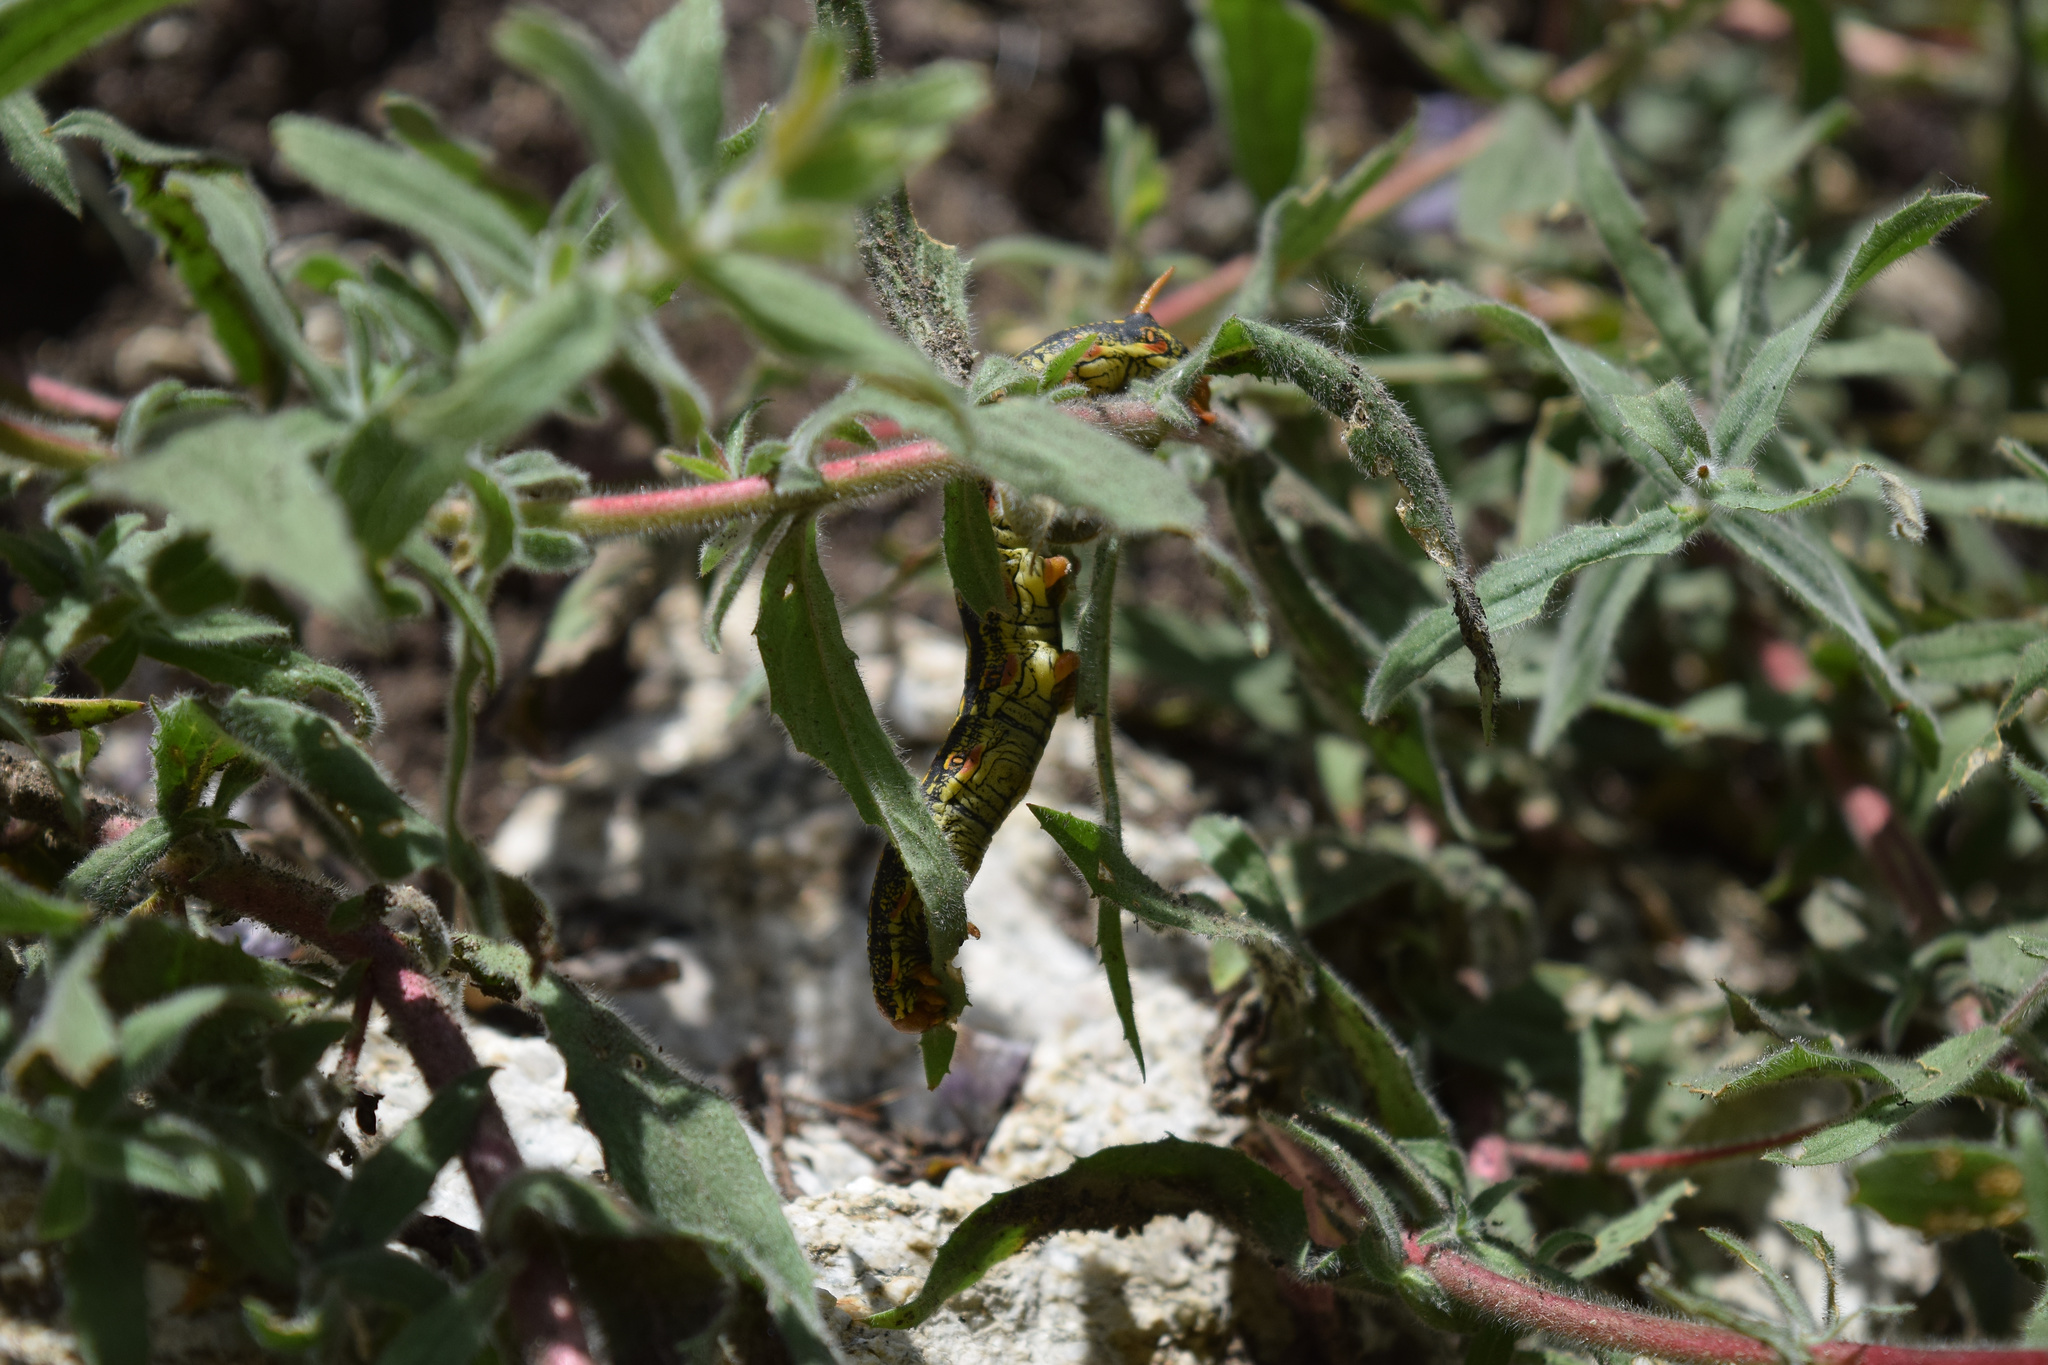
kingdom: Animalia
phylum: Arthropoda
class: Insecta
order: Lepidoptera
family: Sphingidae
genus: Hyles
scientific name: Hyles lineata
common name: White-lined sphinx
